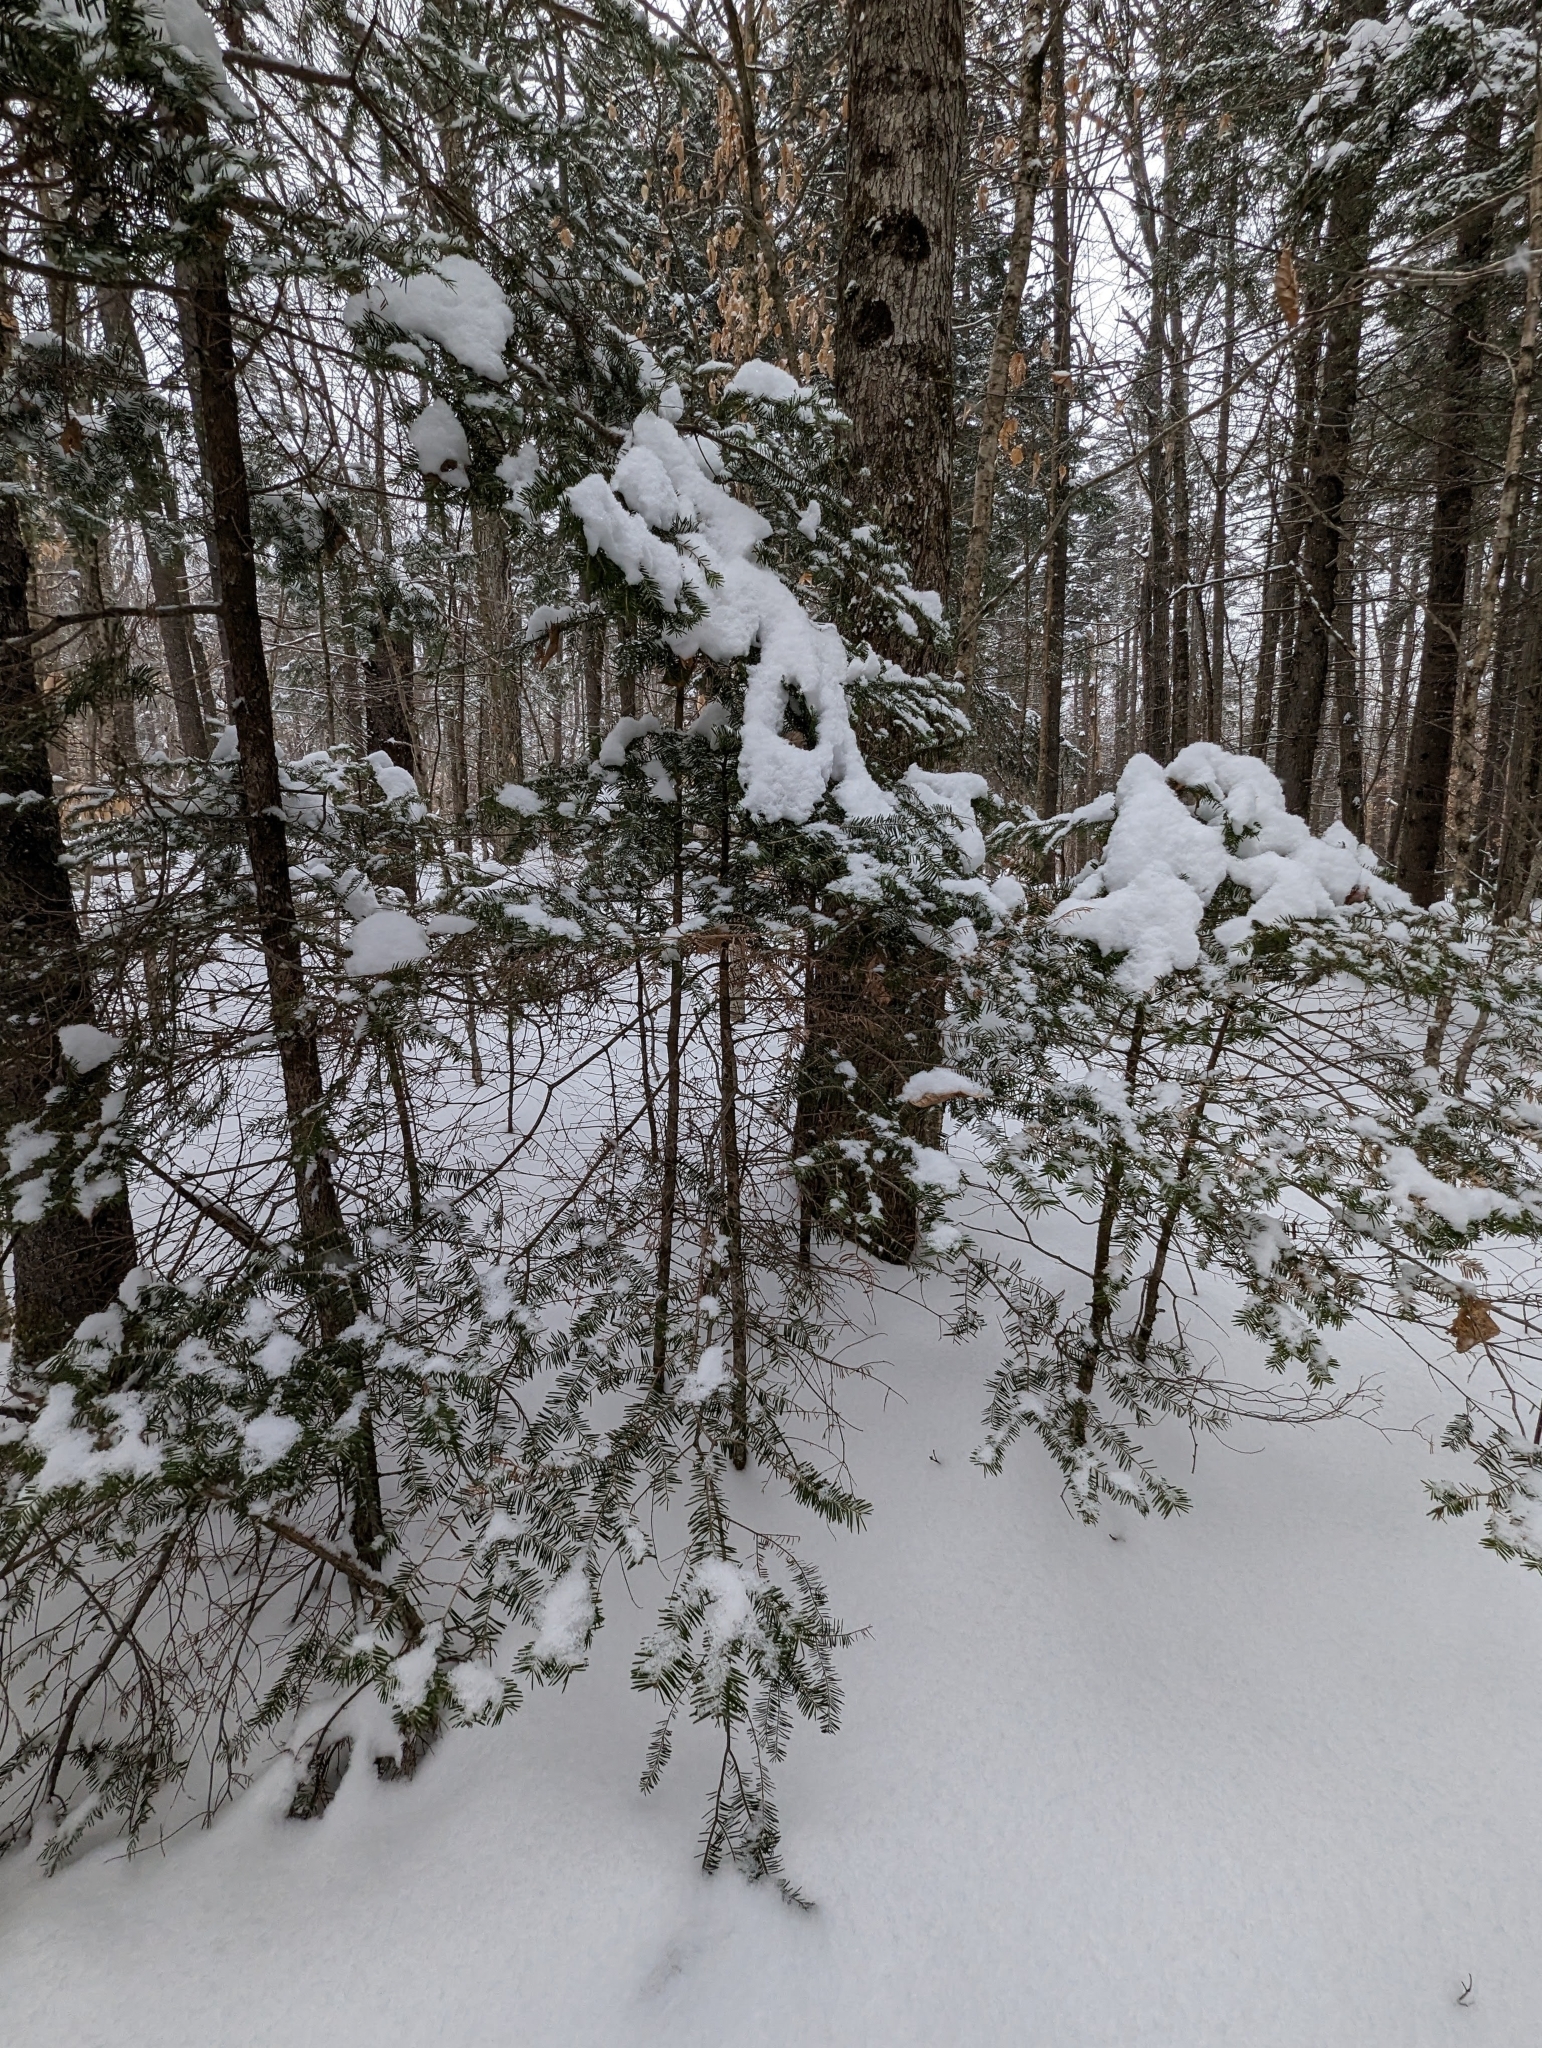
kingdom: Plantae
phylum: Tracheophyta
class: Pinopsida
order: Pinales
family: Pinaceae
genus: Abies
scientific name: Abies balsamea
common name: Balsam fir
